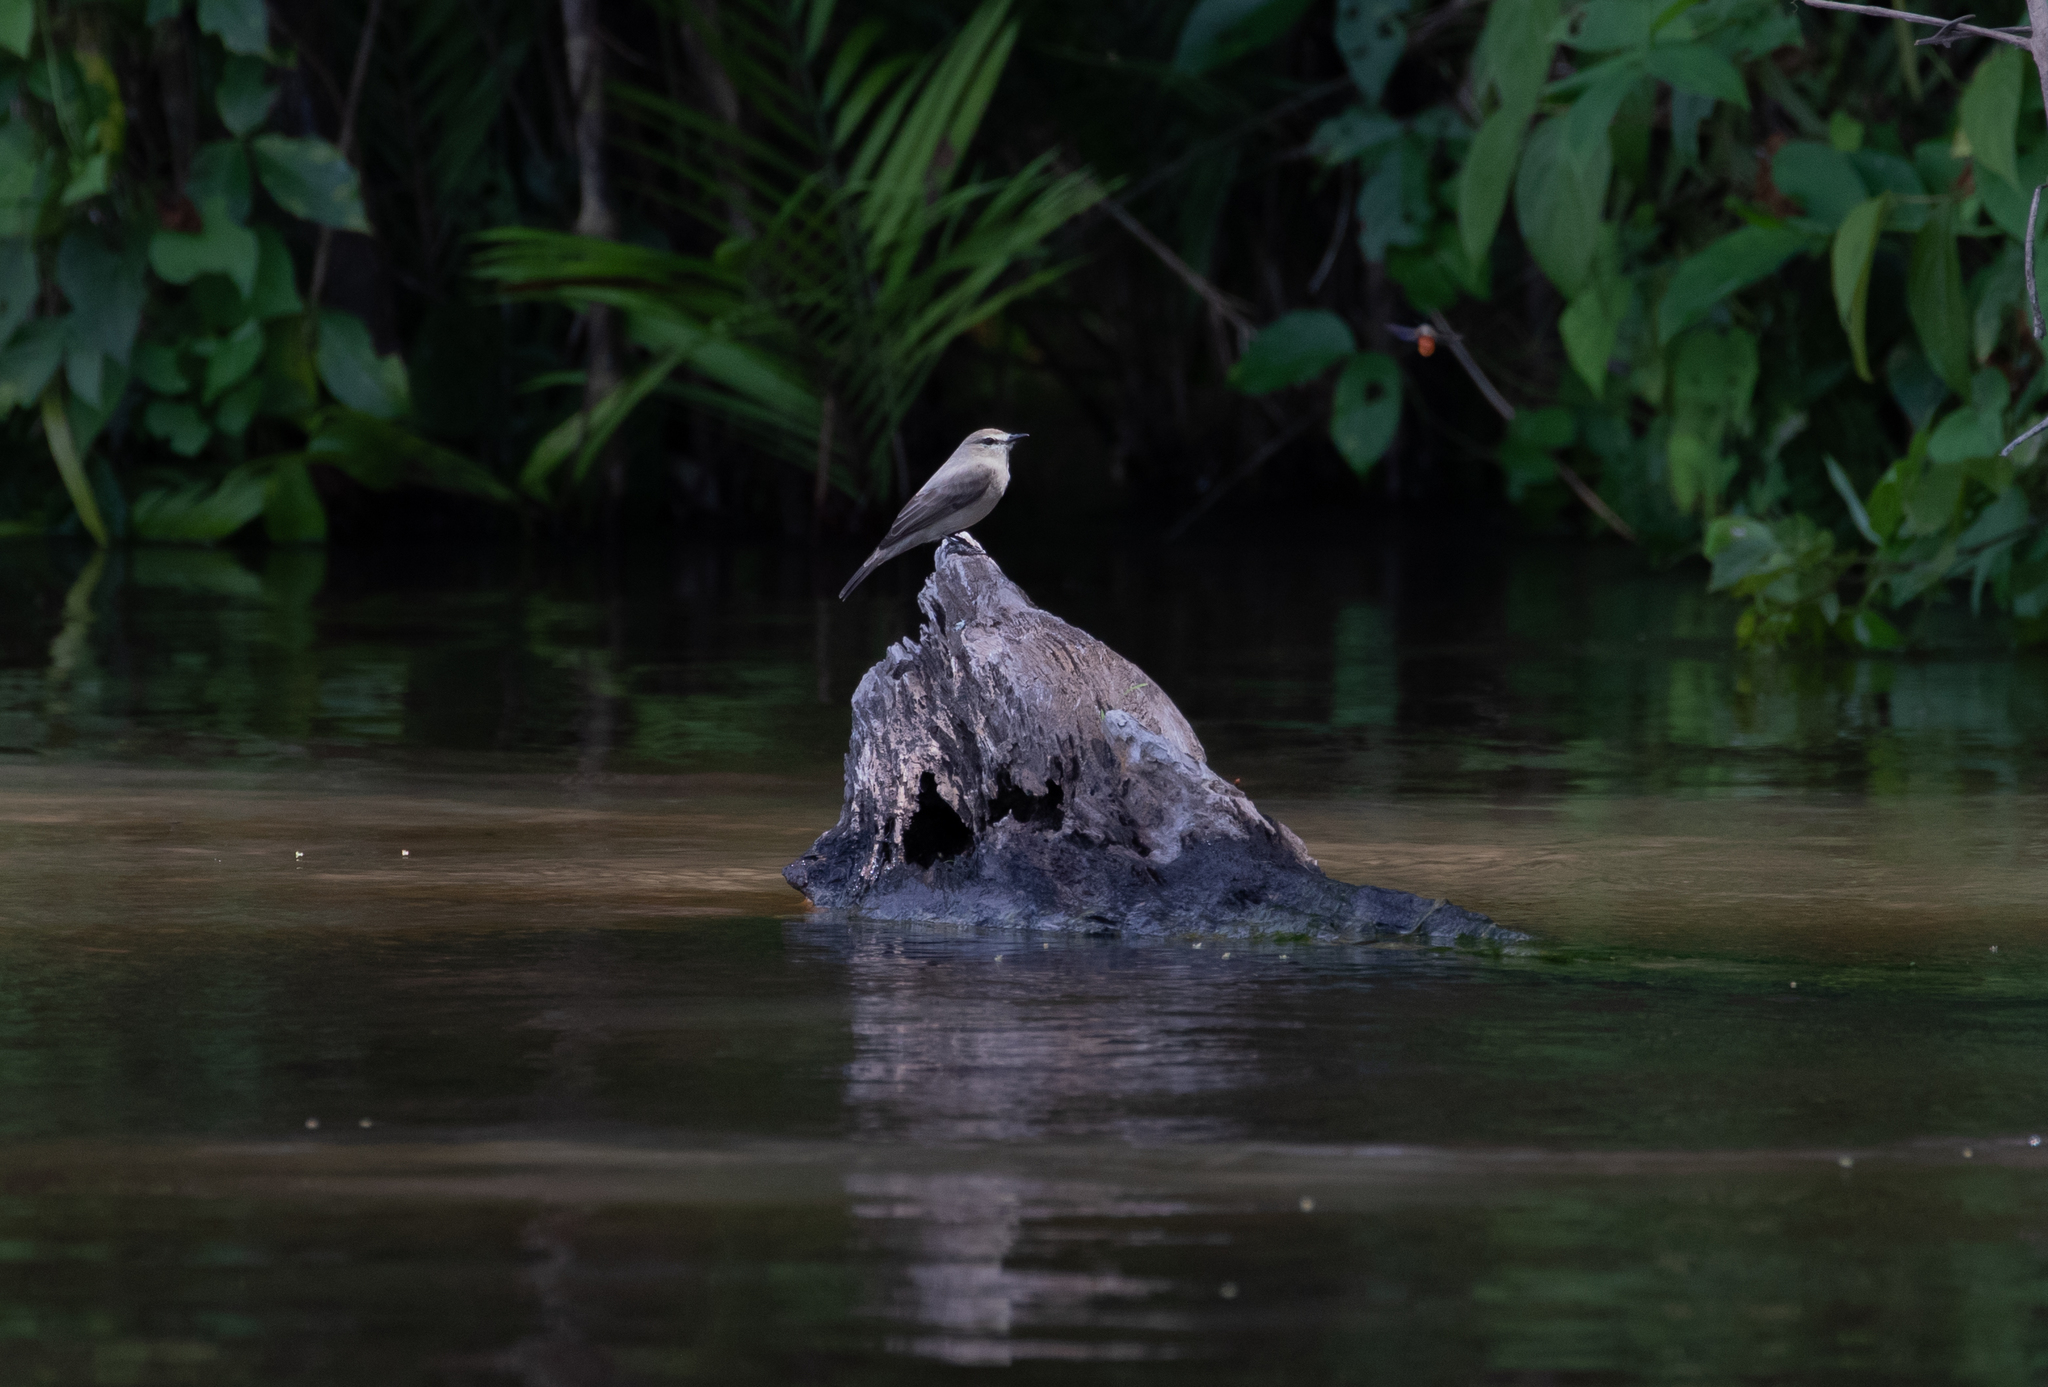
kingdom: Animalia
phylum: Chordata
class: Aves
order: Passeriformes
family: Tyrannidae
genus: Ochthornis
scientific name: Ochthornis littoralis
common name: Drab water tyrant
